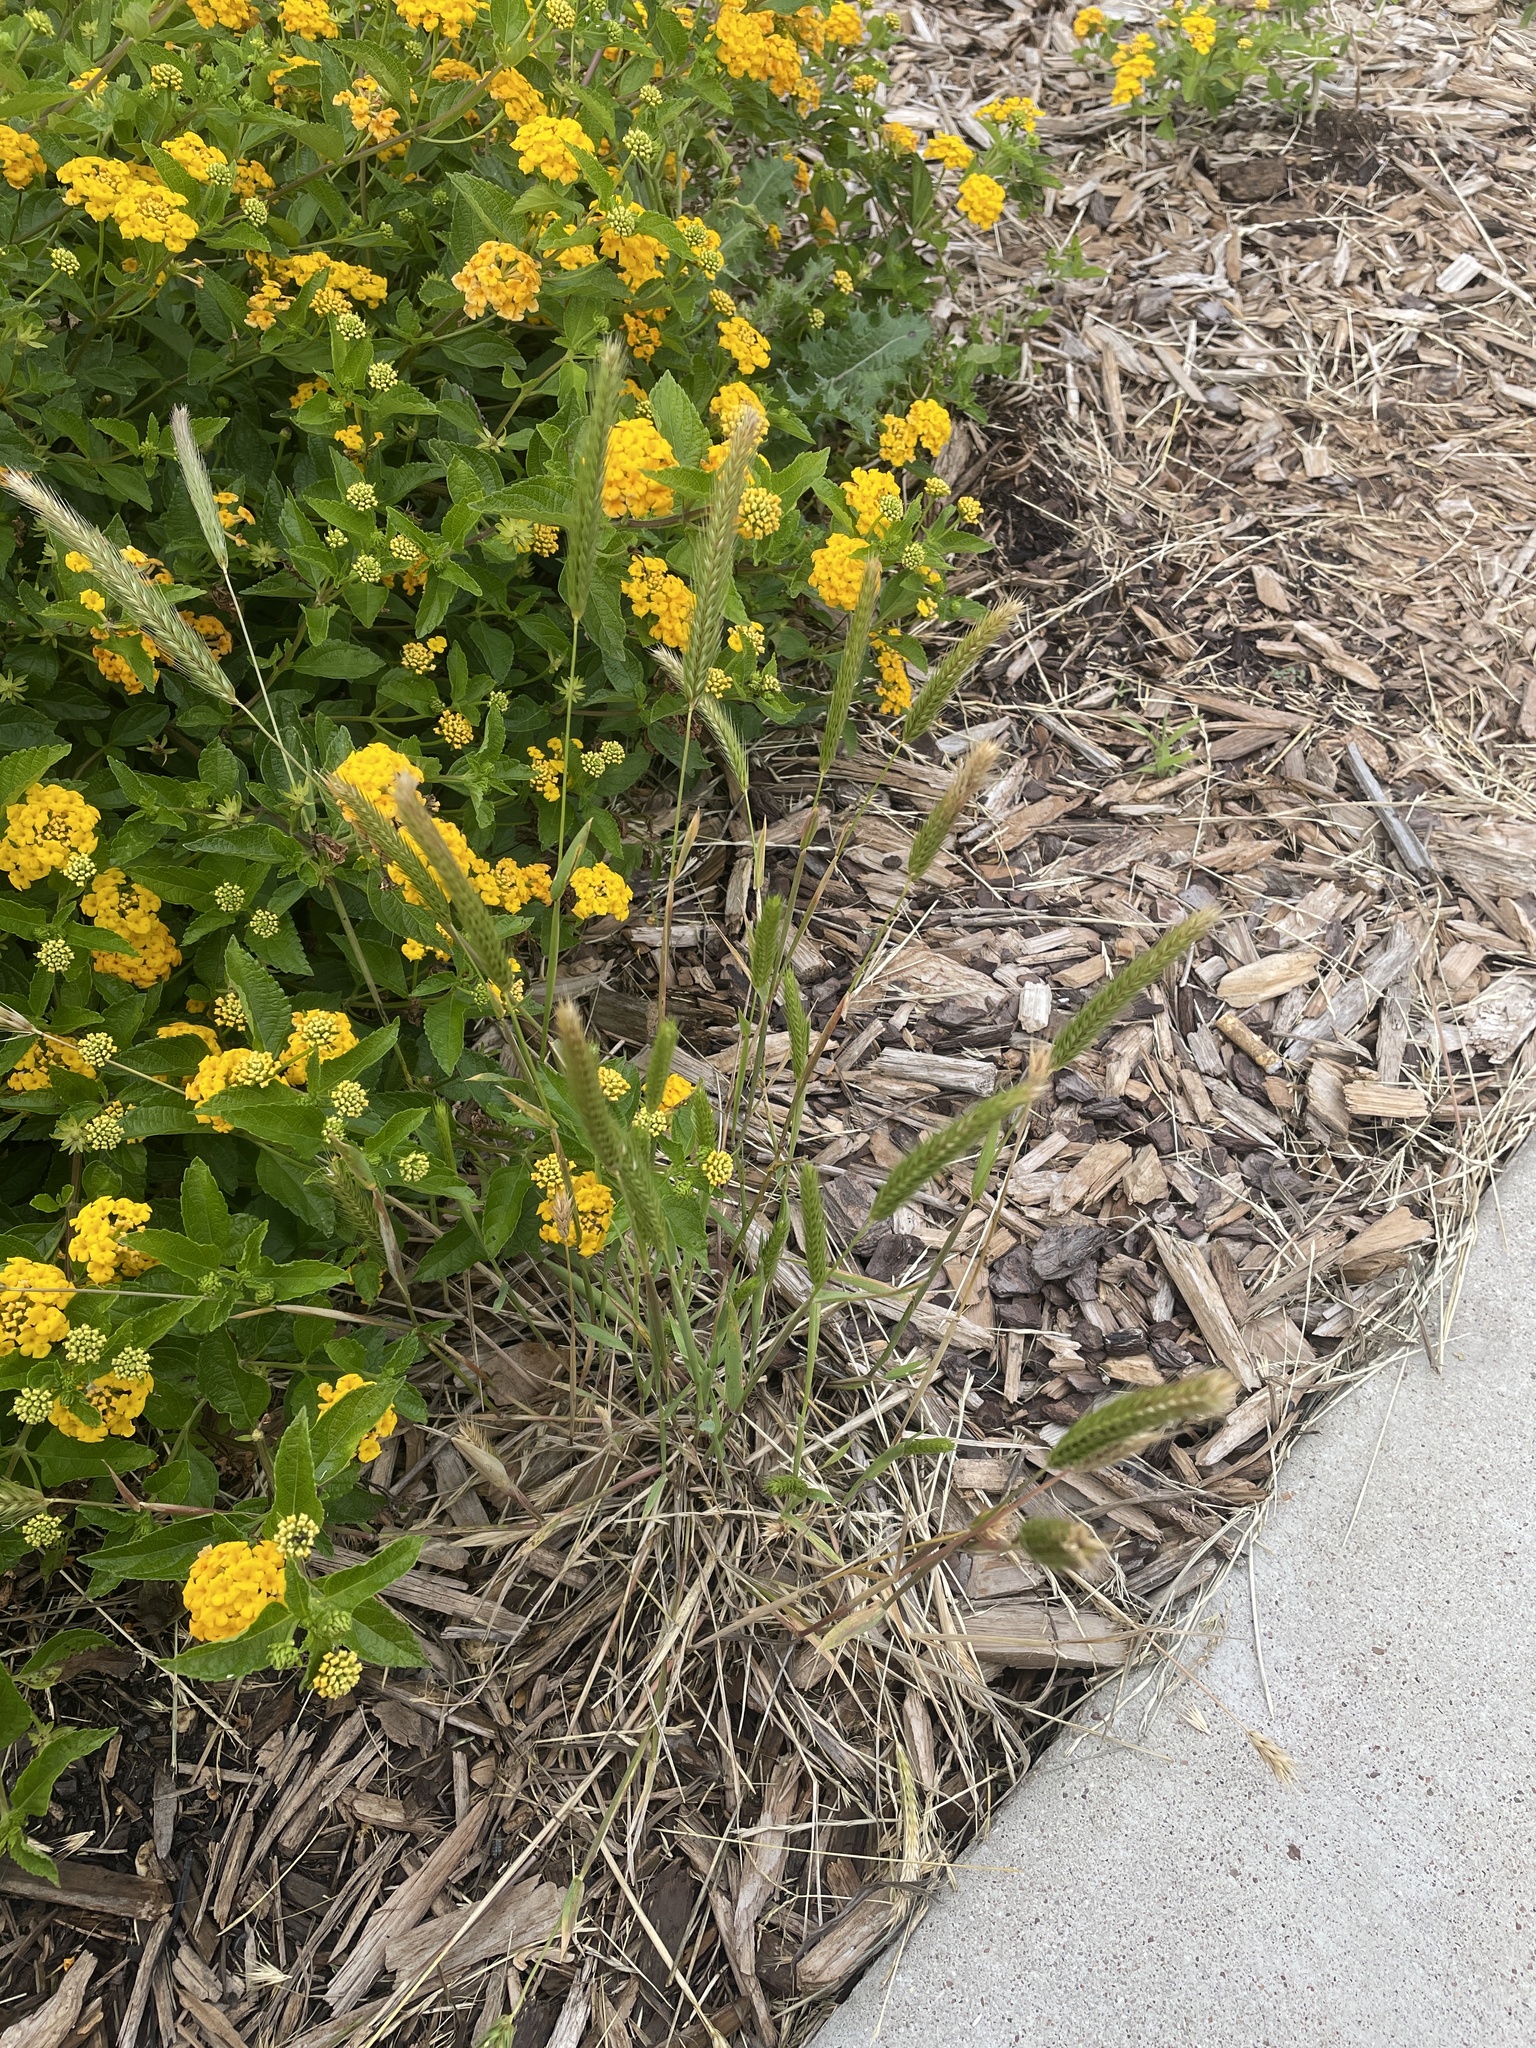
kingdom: Plantae
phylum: Tracheophyta
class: Liliopsida
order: Poales
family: Poaceae
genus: Hordeum
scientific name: Hordeum pusillum
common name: Little barley
